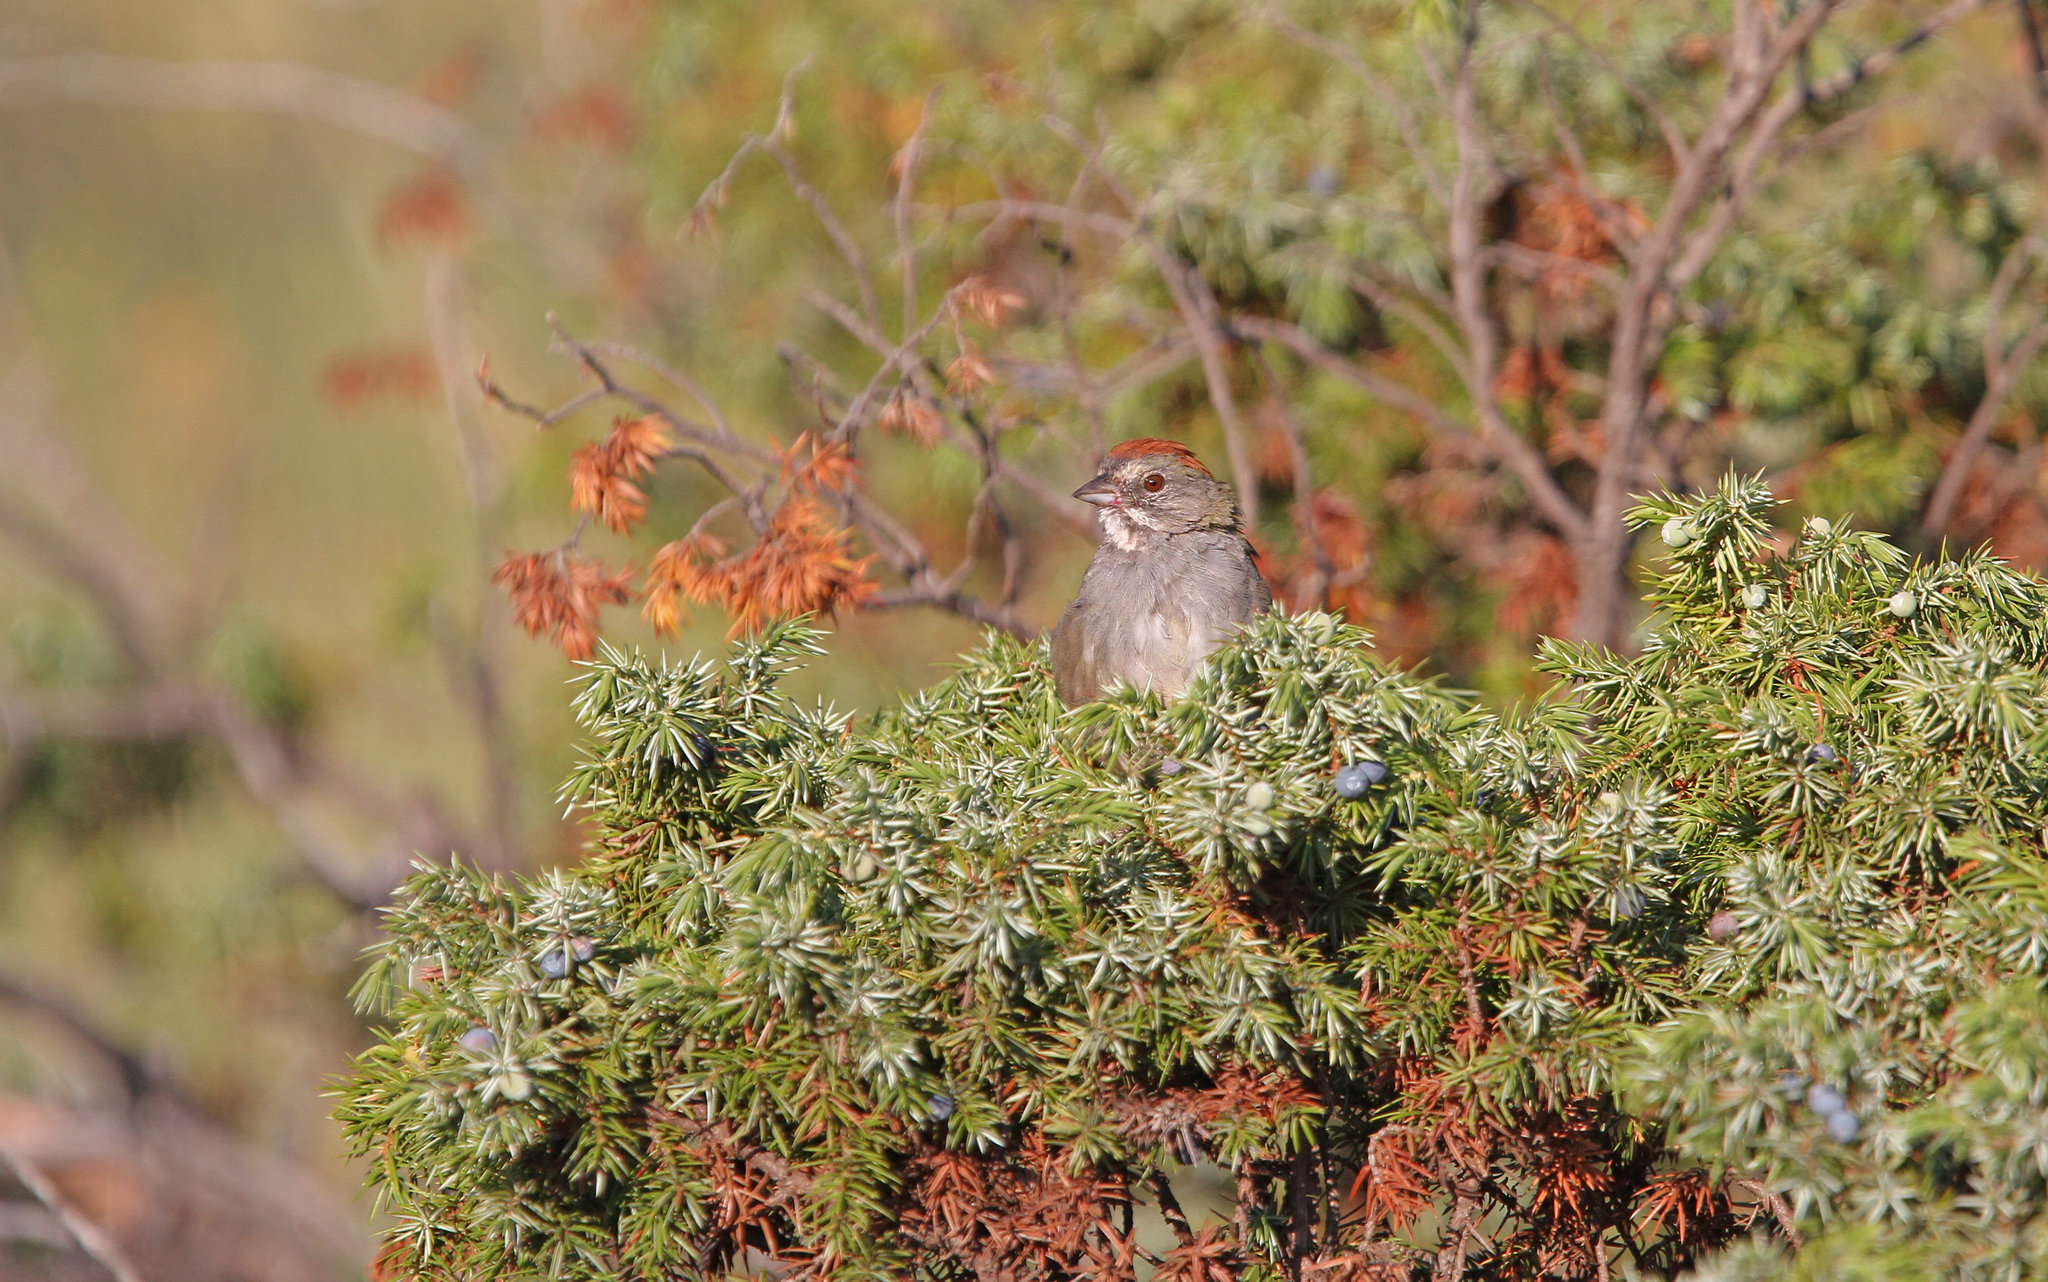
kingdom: Animalia
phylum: Chordata
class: Aves
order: Passeriformes
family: Passerellidae
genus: Pipilo
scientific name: Pipilo chlorurus
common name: Green-tailed towhee
